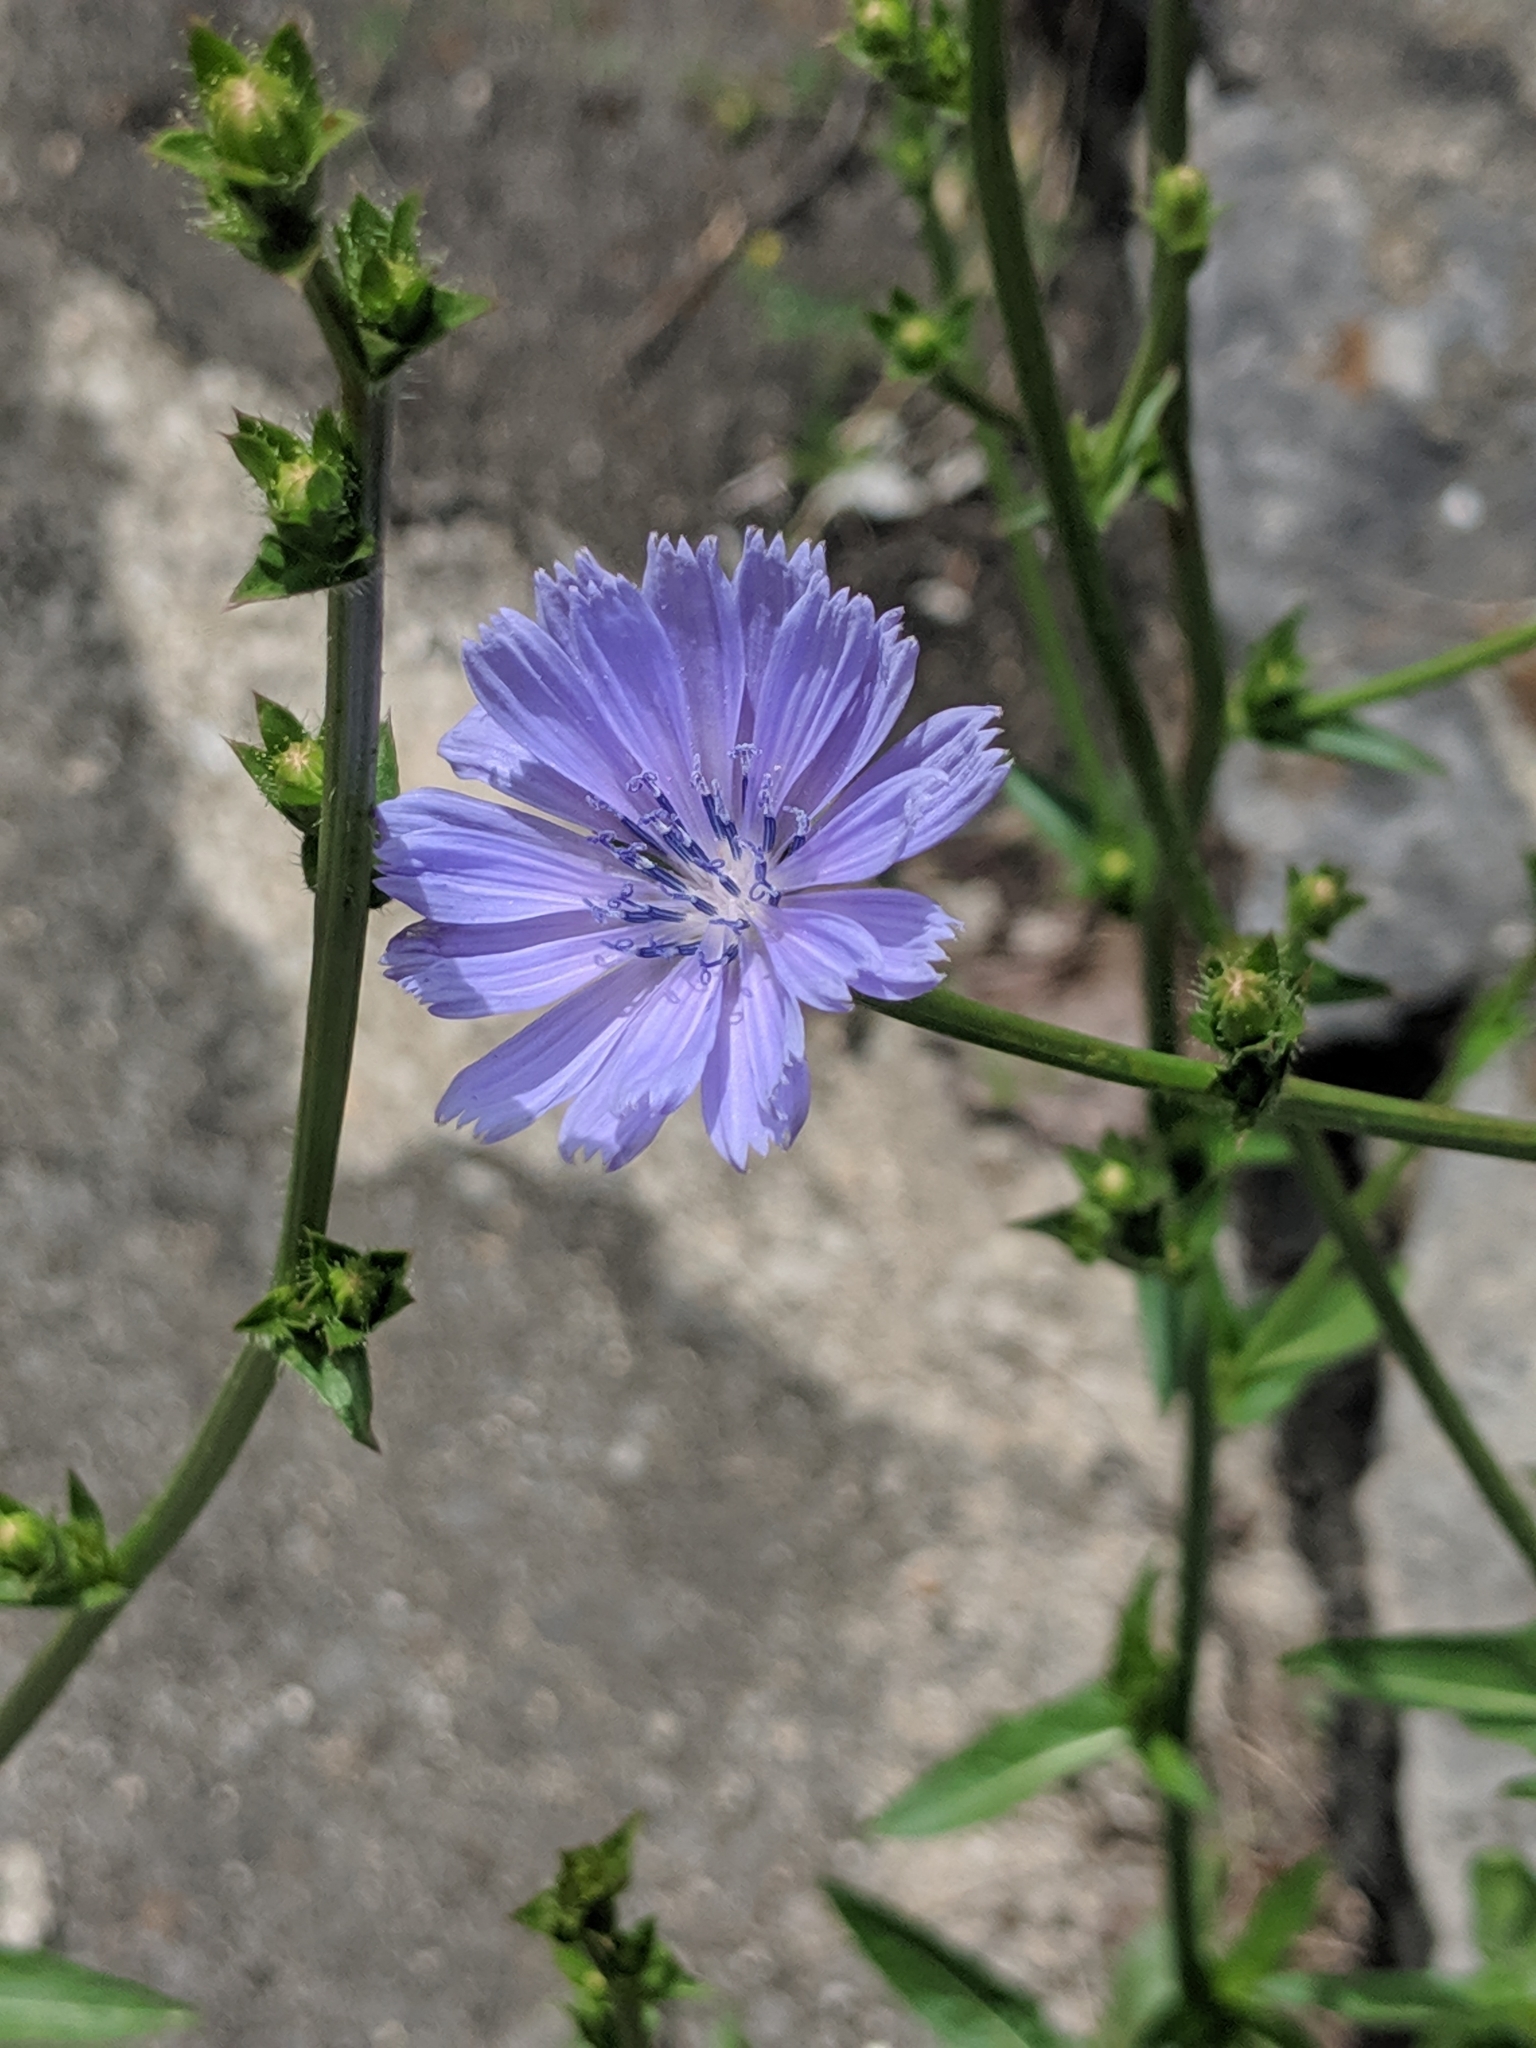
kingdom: Plantae
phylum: Tracheophyta
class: Magnoliopsida
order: Asterales
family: Asteraceae
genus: Cichorium
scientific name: Cichorium intybus
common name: Chicory
